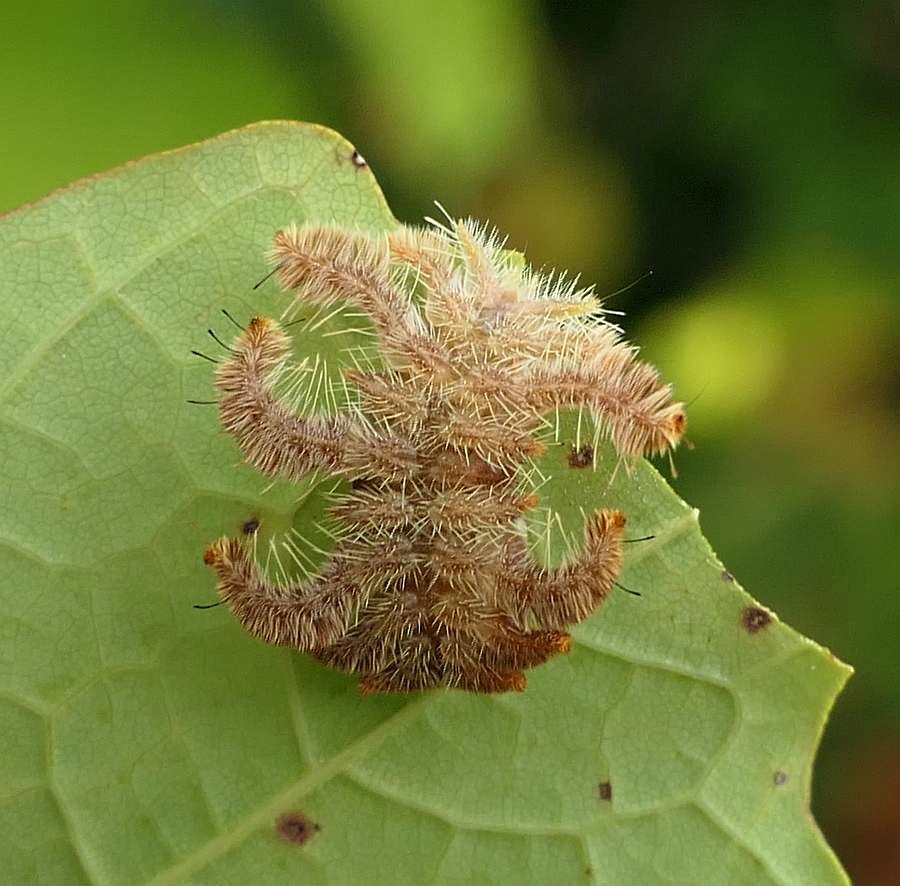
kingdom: Animalia
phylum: Arthropoda
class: Insecta
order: Lepidoptera
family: Limacodidae
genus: Phobetron
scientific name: Phobetron pithecium
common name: Hag moth
